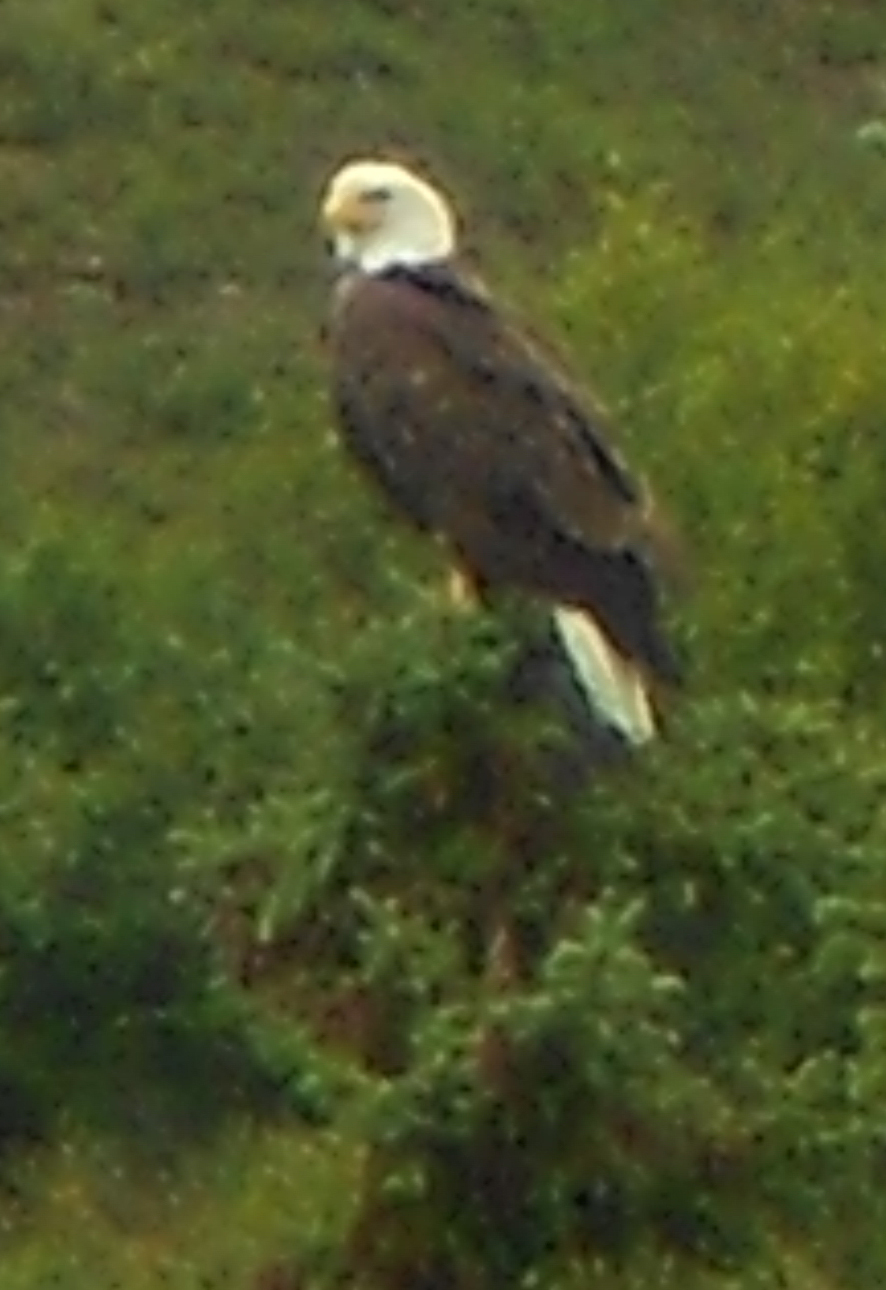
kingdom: Animalia
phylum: Chordata
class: Aves
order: Accipitriformes
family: Accipitridae
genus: Haliaeetus
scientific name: Haliaeetus leucocephalus
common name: Bald eagle
